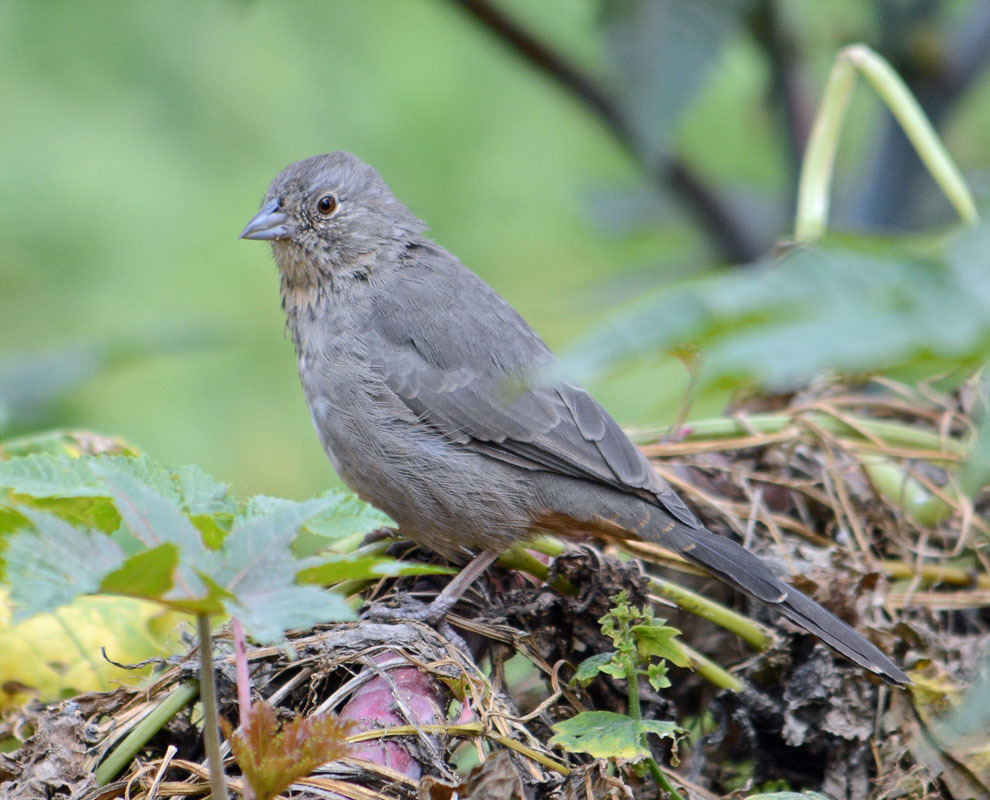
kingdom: Animalia
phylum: Chordata
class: Aves
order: Passeriformes
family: Passerellidae
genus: Melozone
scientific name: Melozone fusca
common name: Canyon towhee
